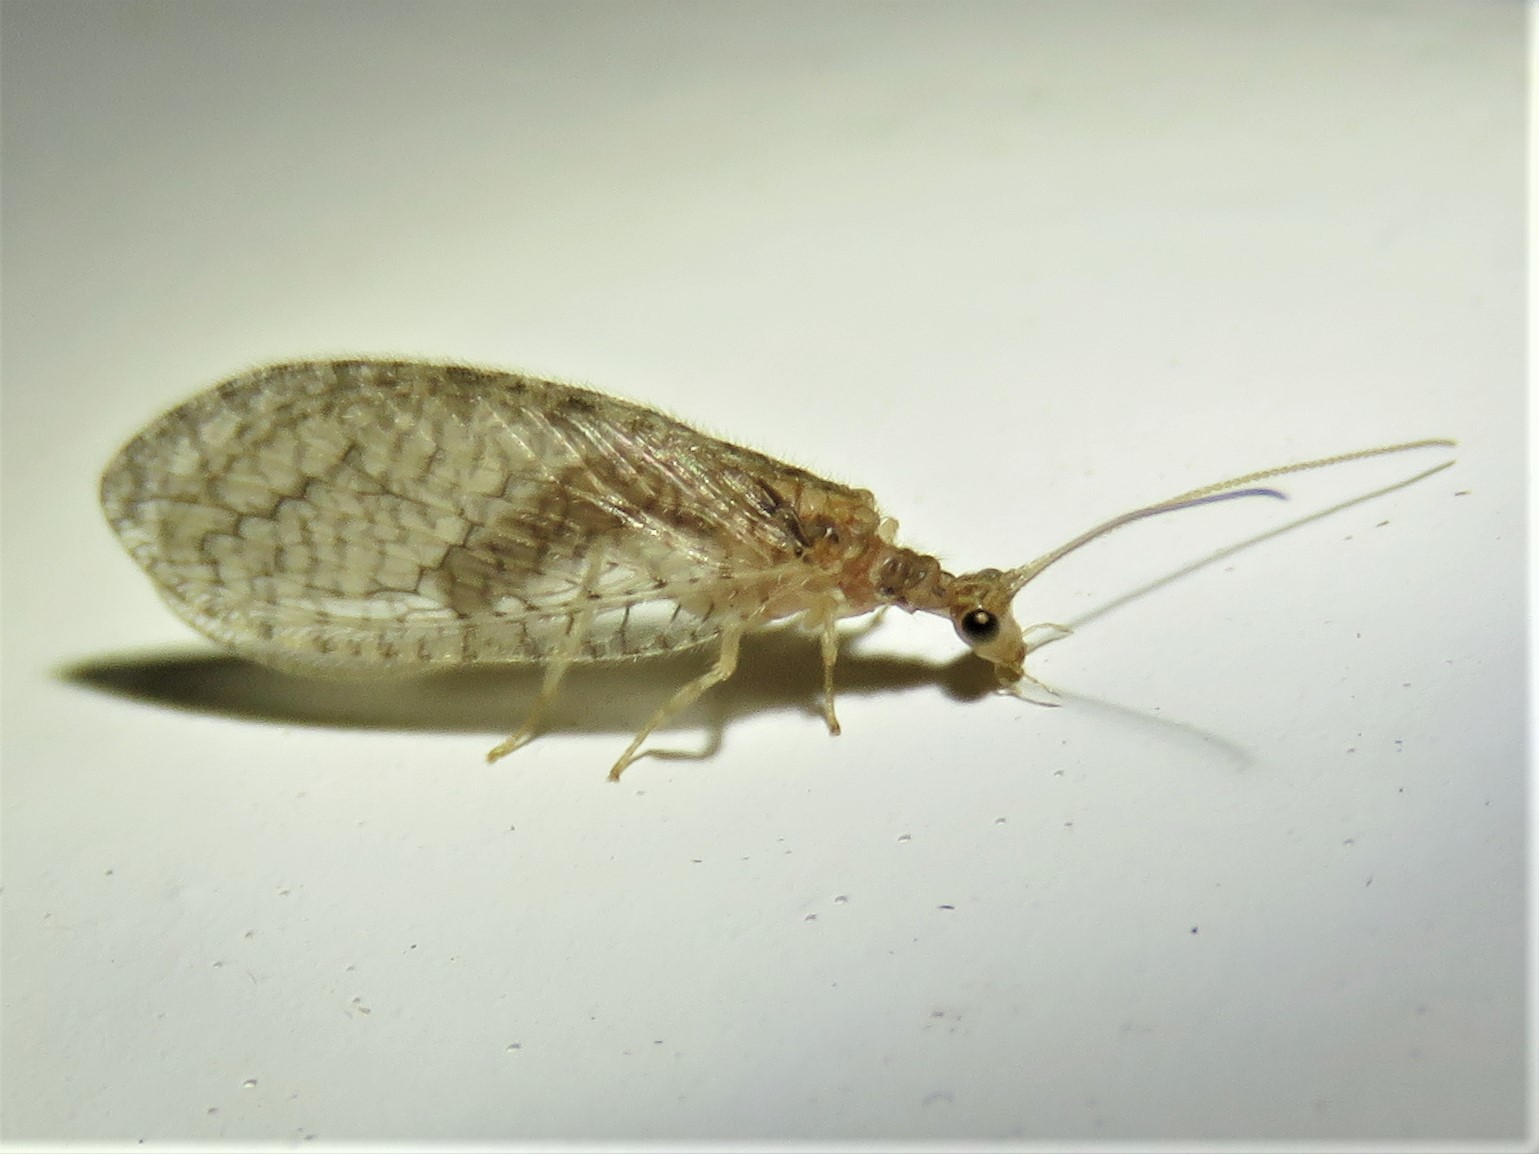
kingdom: Animalia
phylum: Arthropoda
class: Insecta
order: Neuroptera
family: Hemerobiidae
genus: Micromus
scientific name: Micromus posticus
